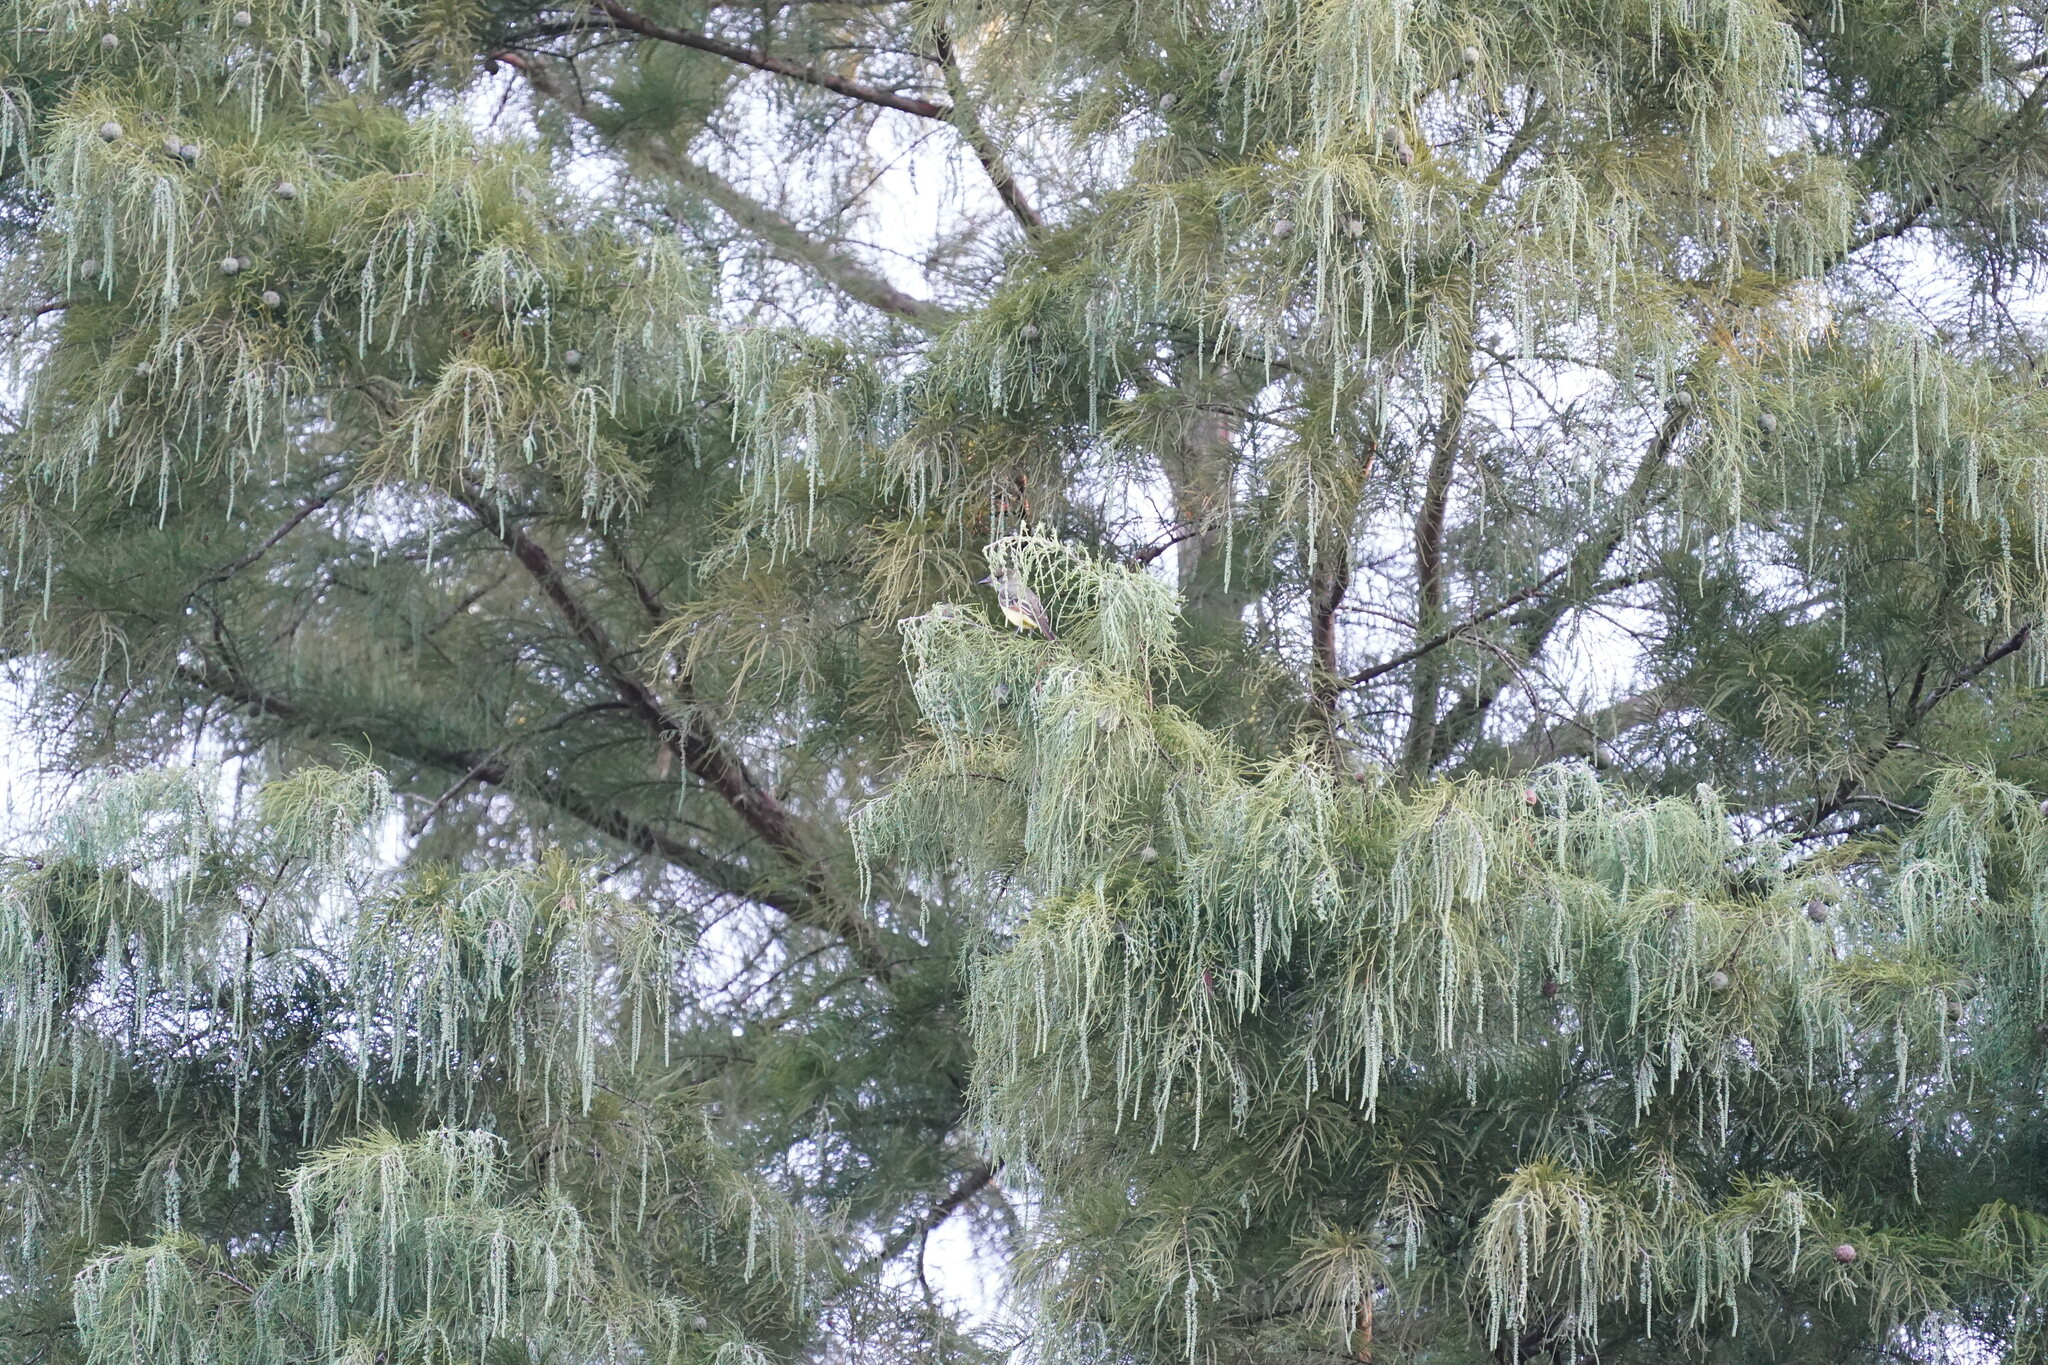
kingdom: Animalia
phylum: Chordata
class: Aves
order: Passeriformes
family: Tyrannidae
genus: Myiarchus
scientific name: Myiarchus crinitus
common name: Great crested flycatcher
